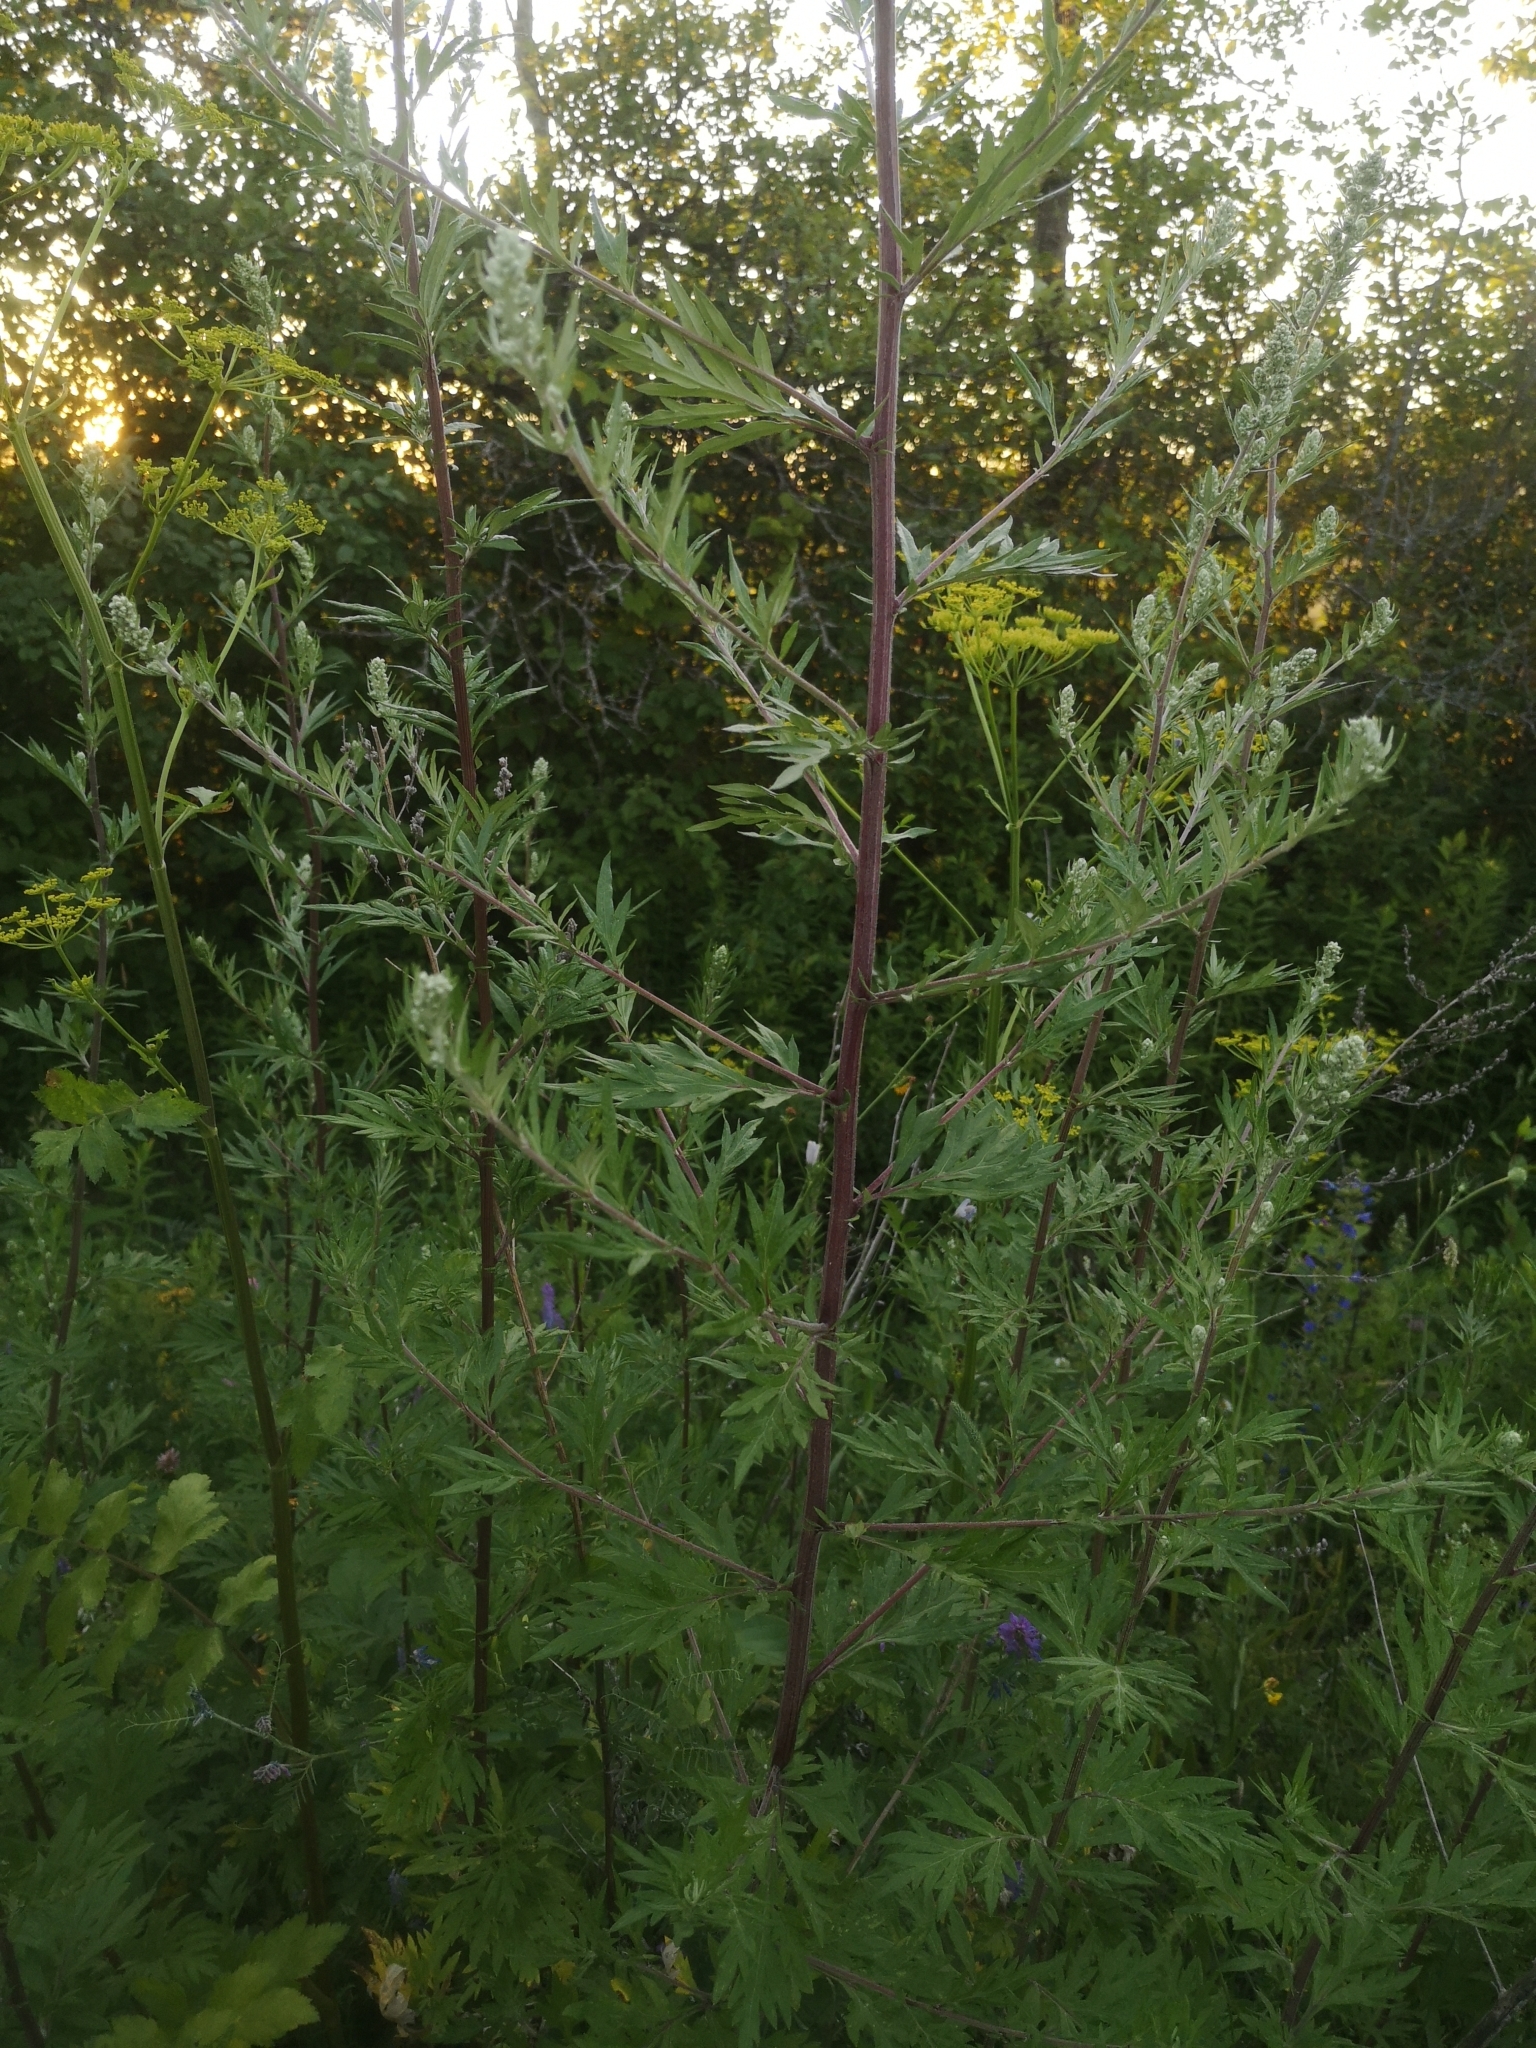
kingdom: Plantae
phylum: Tracheophyta
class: Magnoliopsida
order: Asterales
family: Asteraceae
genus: Artemisia
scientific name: Artemisia vulgaris
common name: Mugwort
